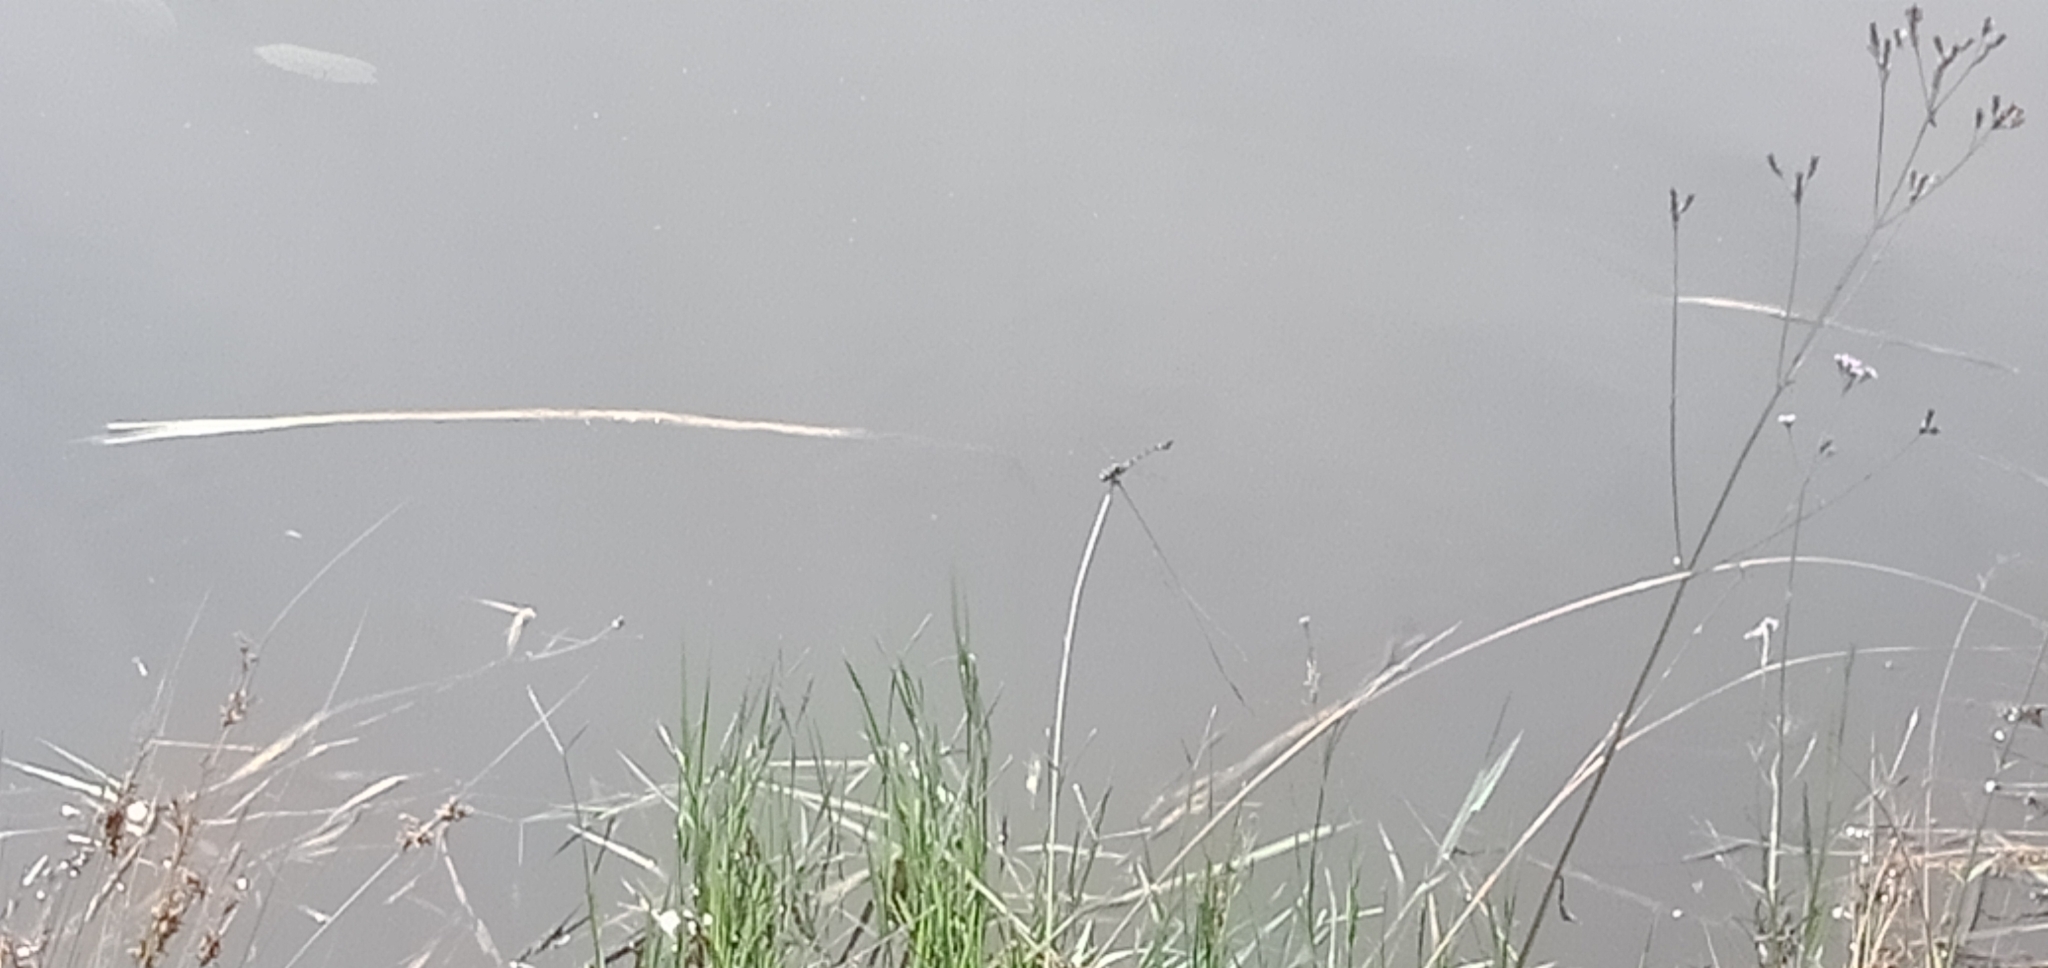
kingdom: Animalia
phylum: Arthropoda
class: Insecta
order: Odonata
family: Gomphidae
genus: Ictinogomphus
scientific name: Ictinogomphus australis
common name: Australian tiger
